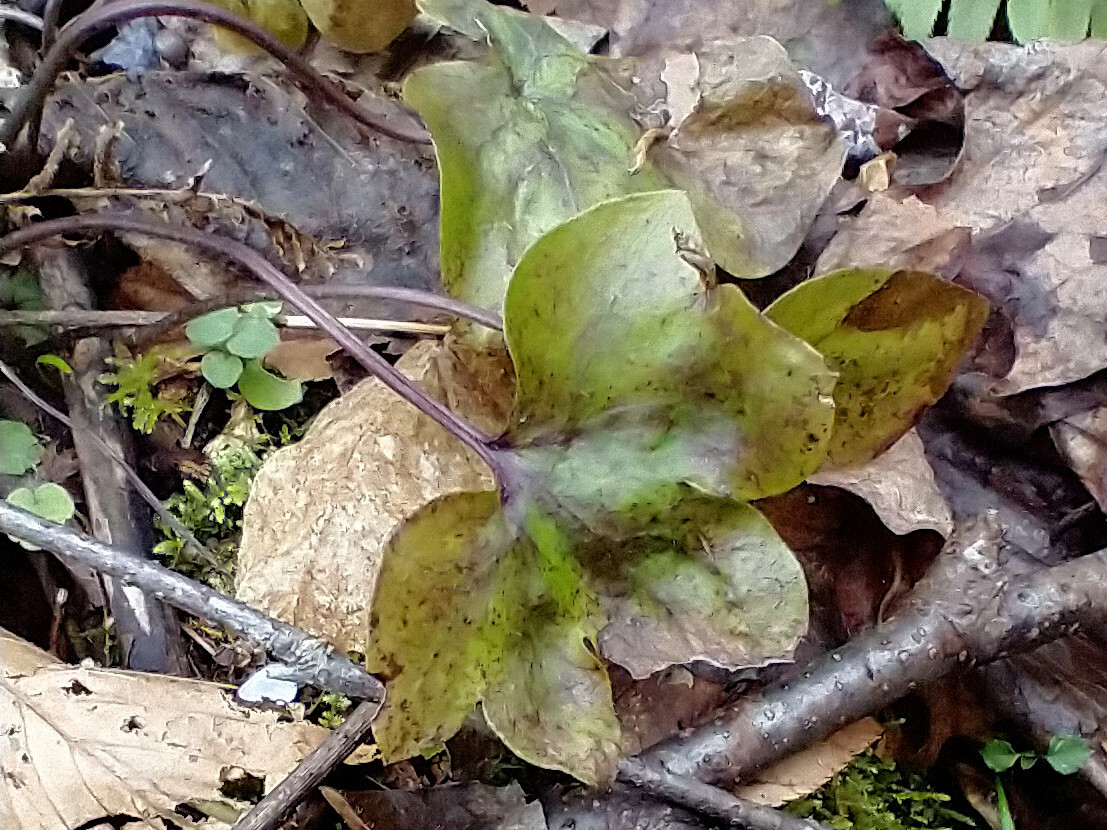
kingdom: Plantae
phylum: Tracheophyta
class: Magnoliopsida
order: Ranunculales
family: Ranunculaceae
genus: Hepatica
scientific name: Hepatica acutiloba
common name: Sharp-lobed hepatica
